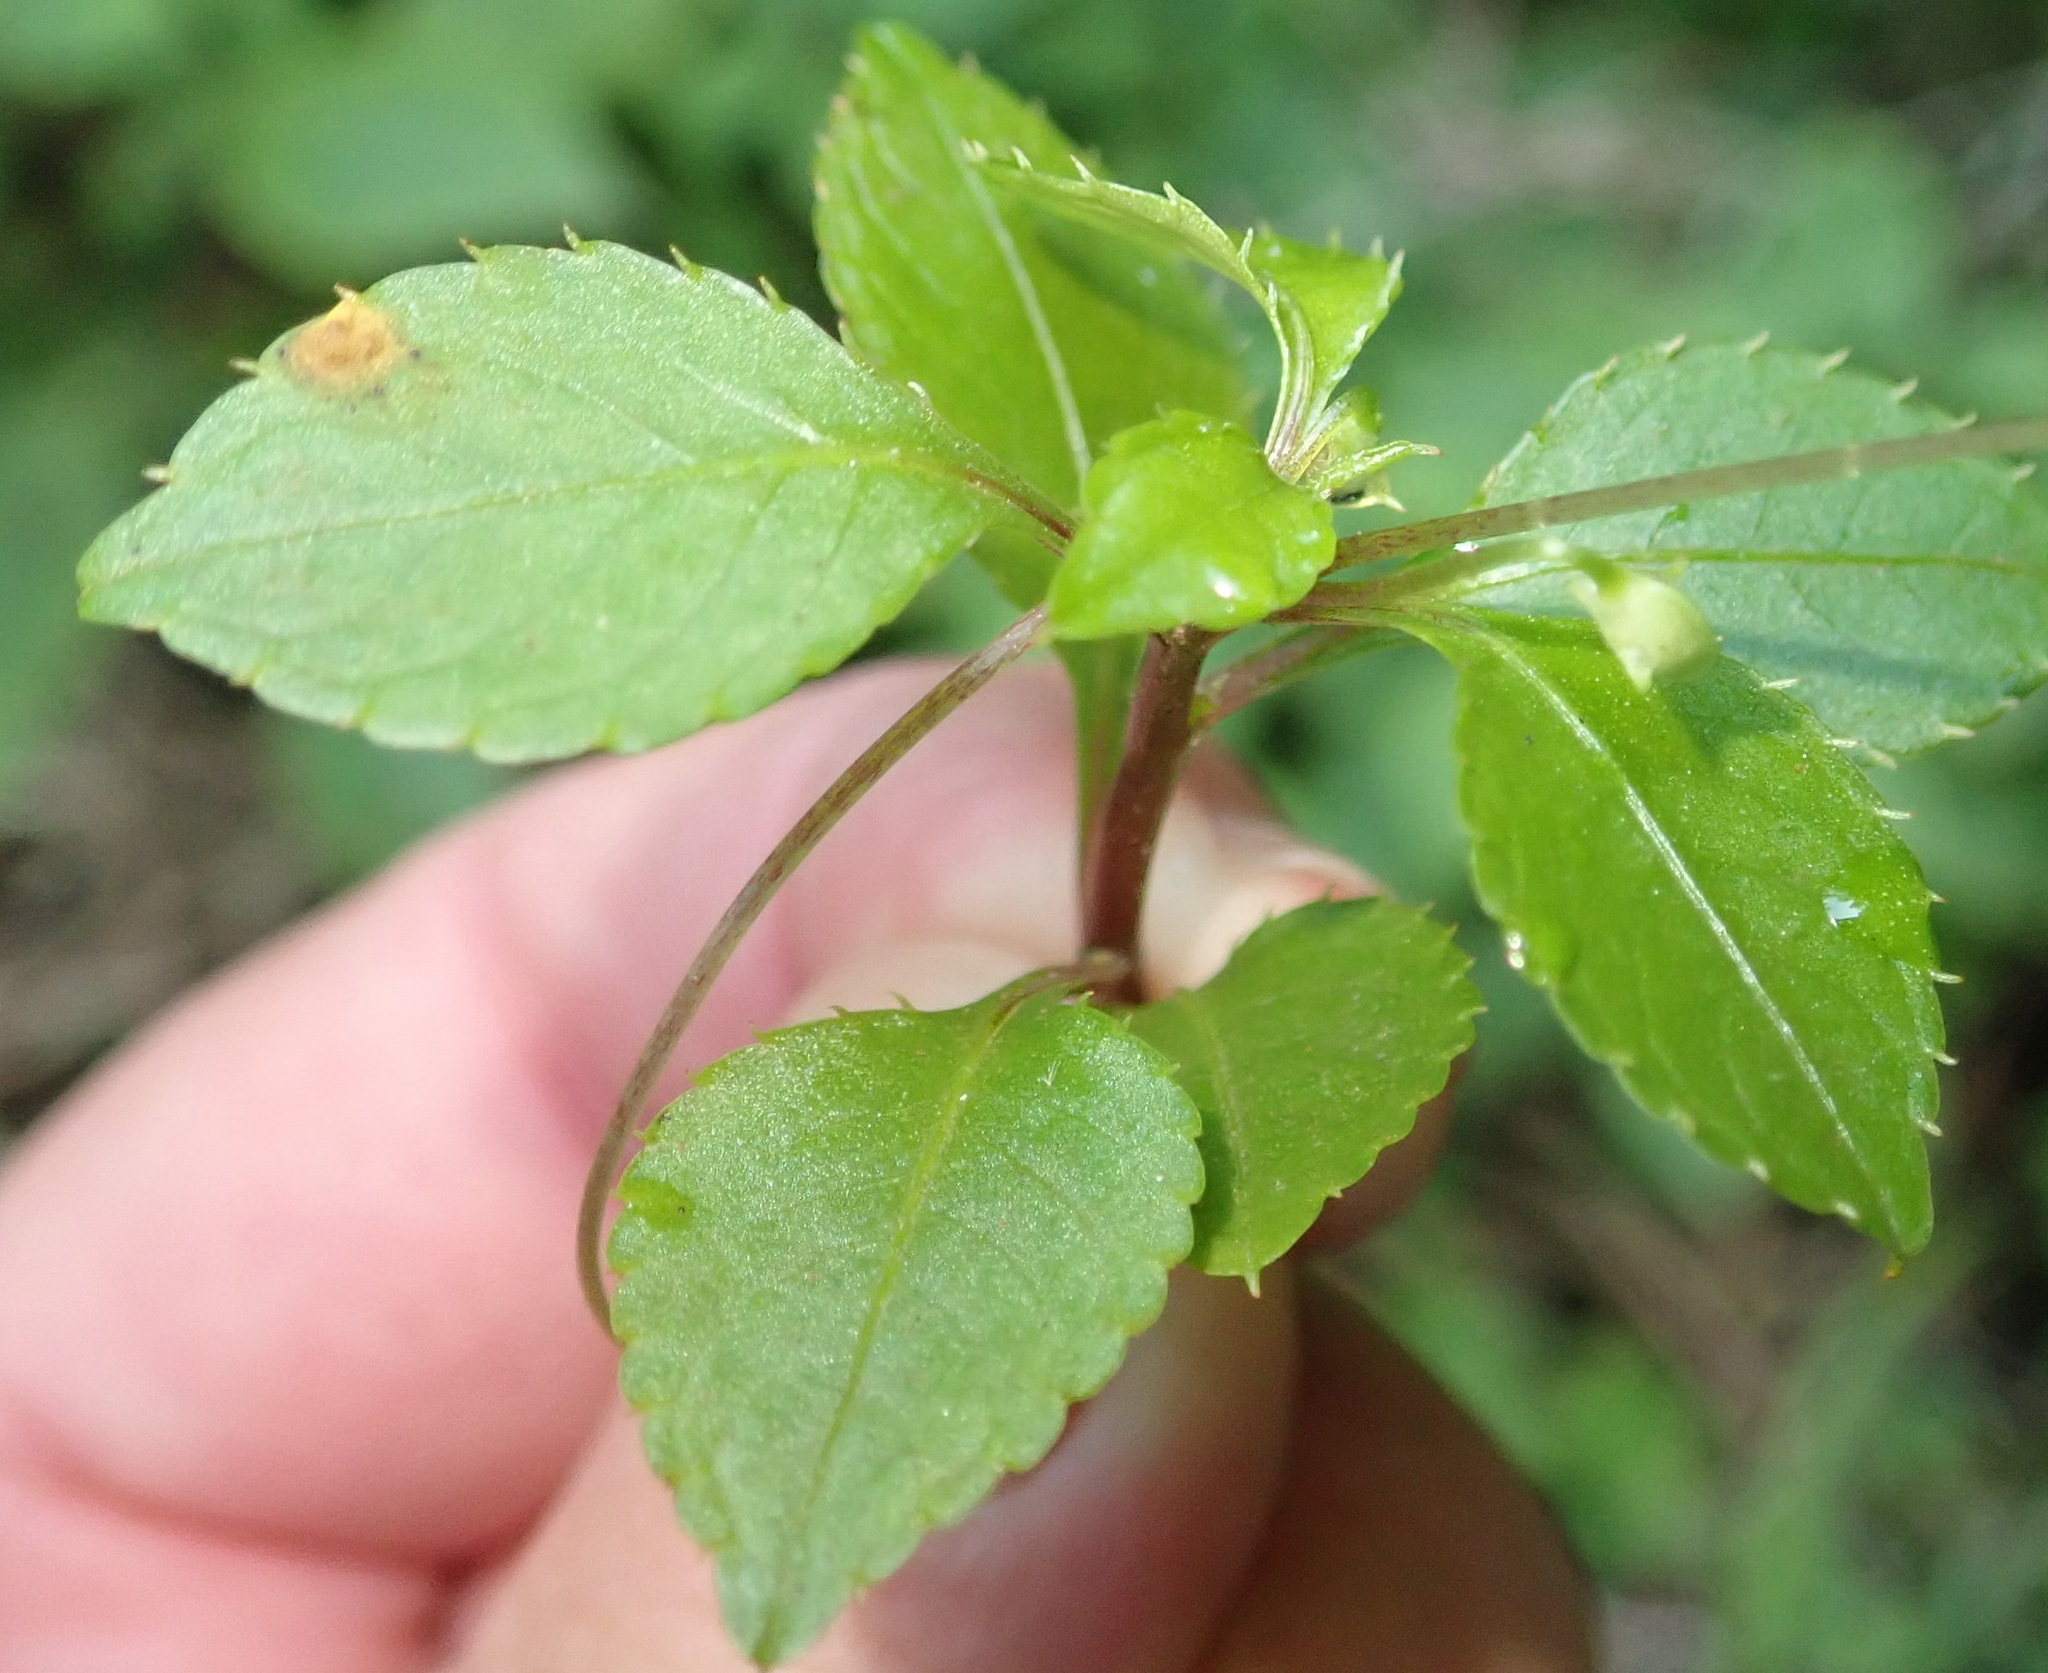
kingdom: Plantae
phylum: Tracheophyta
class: Magnoliopsida
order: Ericales
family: Balsaminaceae
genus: Impatiens
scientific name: Impatiens hochstetteri
